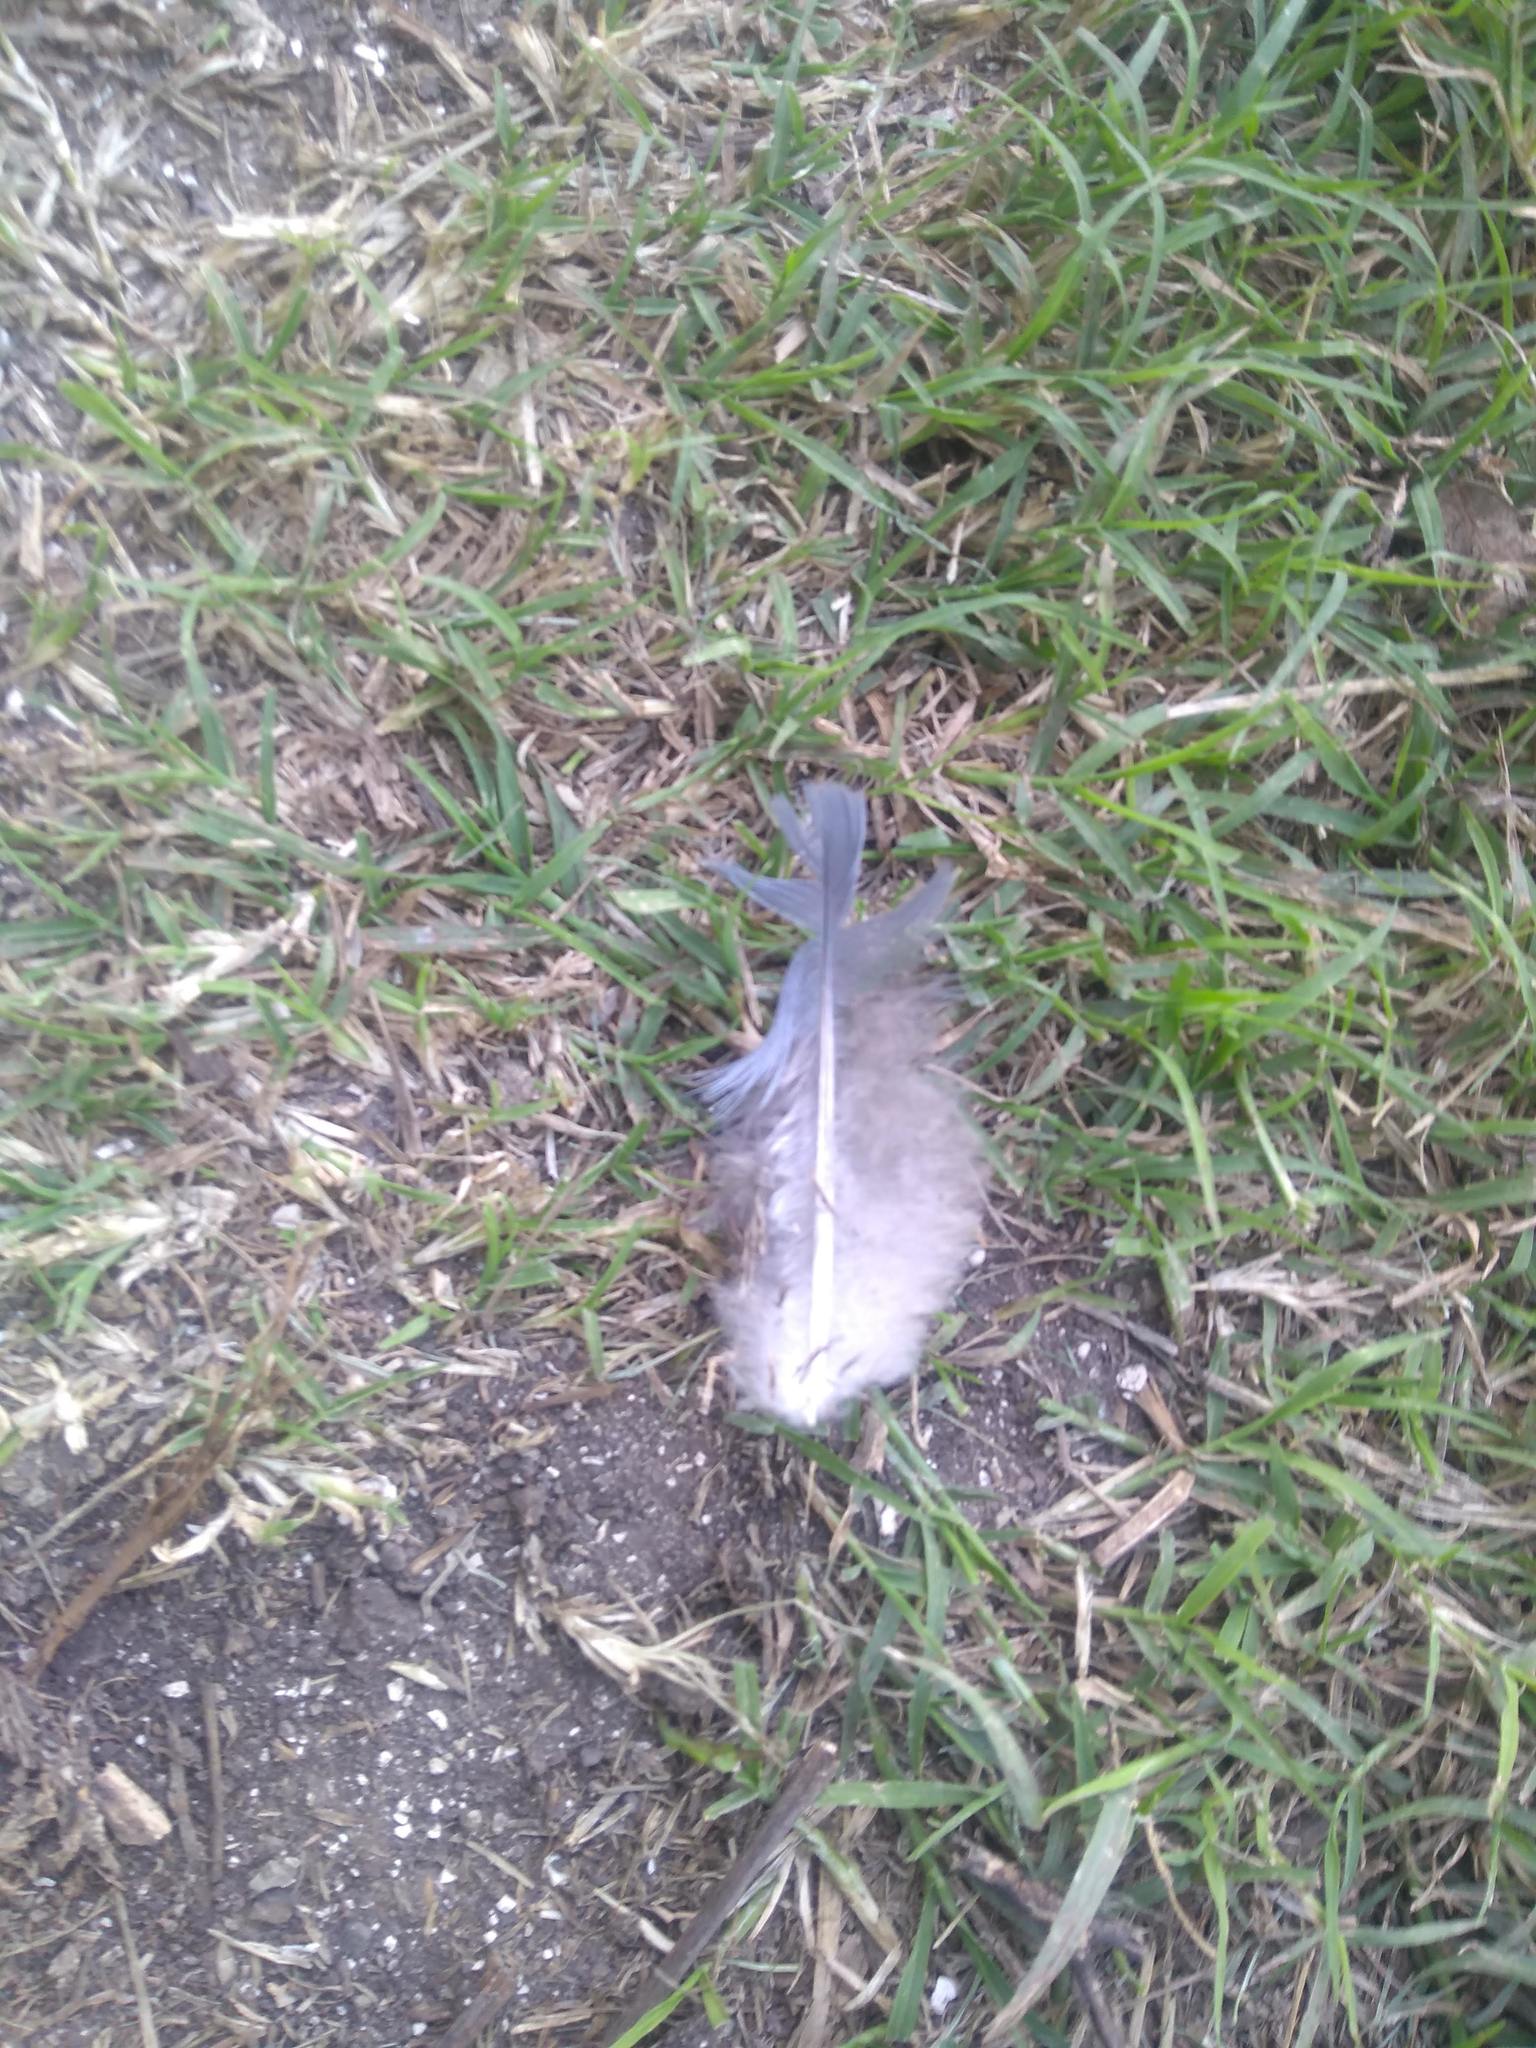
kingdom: Animalia
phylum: Chordata
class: Aves
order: Columbiformes
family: Columbidae
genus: Columba
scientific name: Columba livia
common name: Rock pigeon
